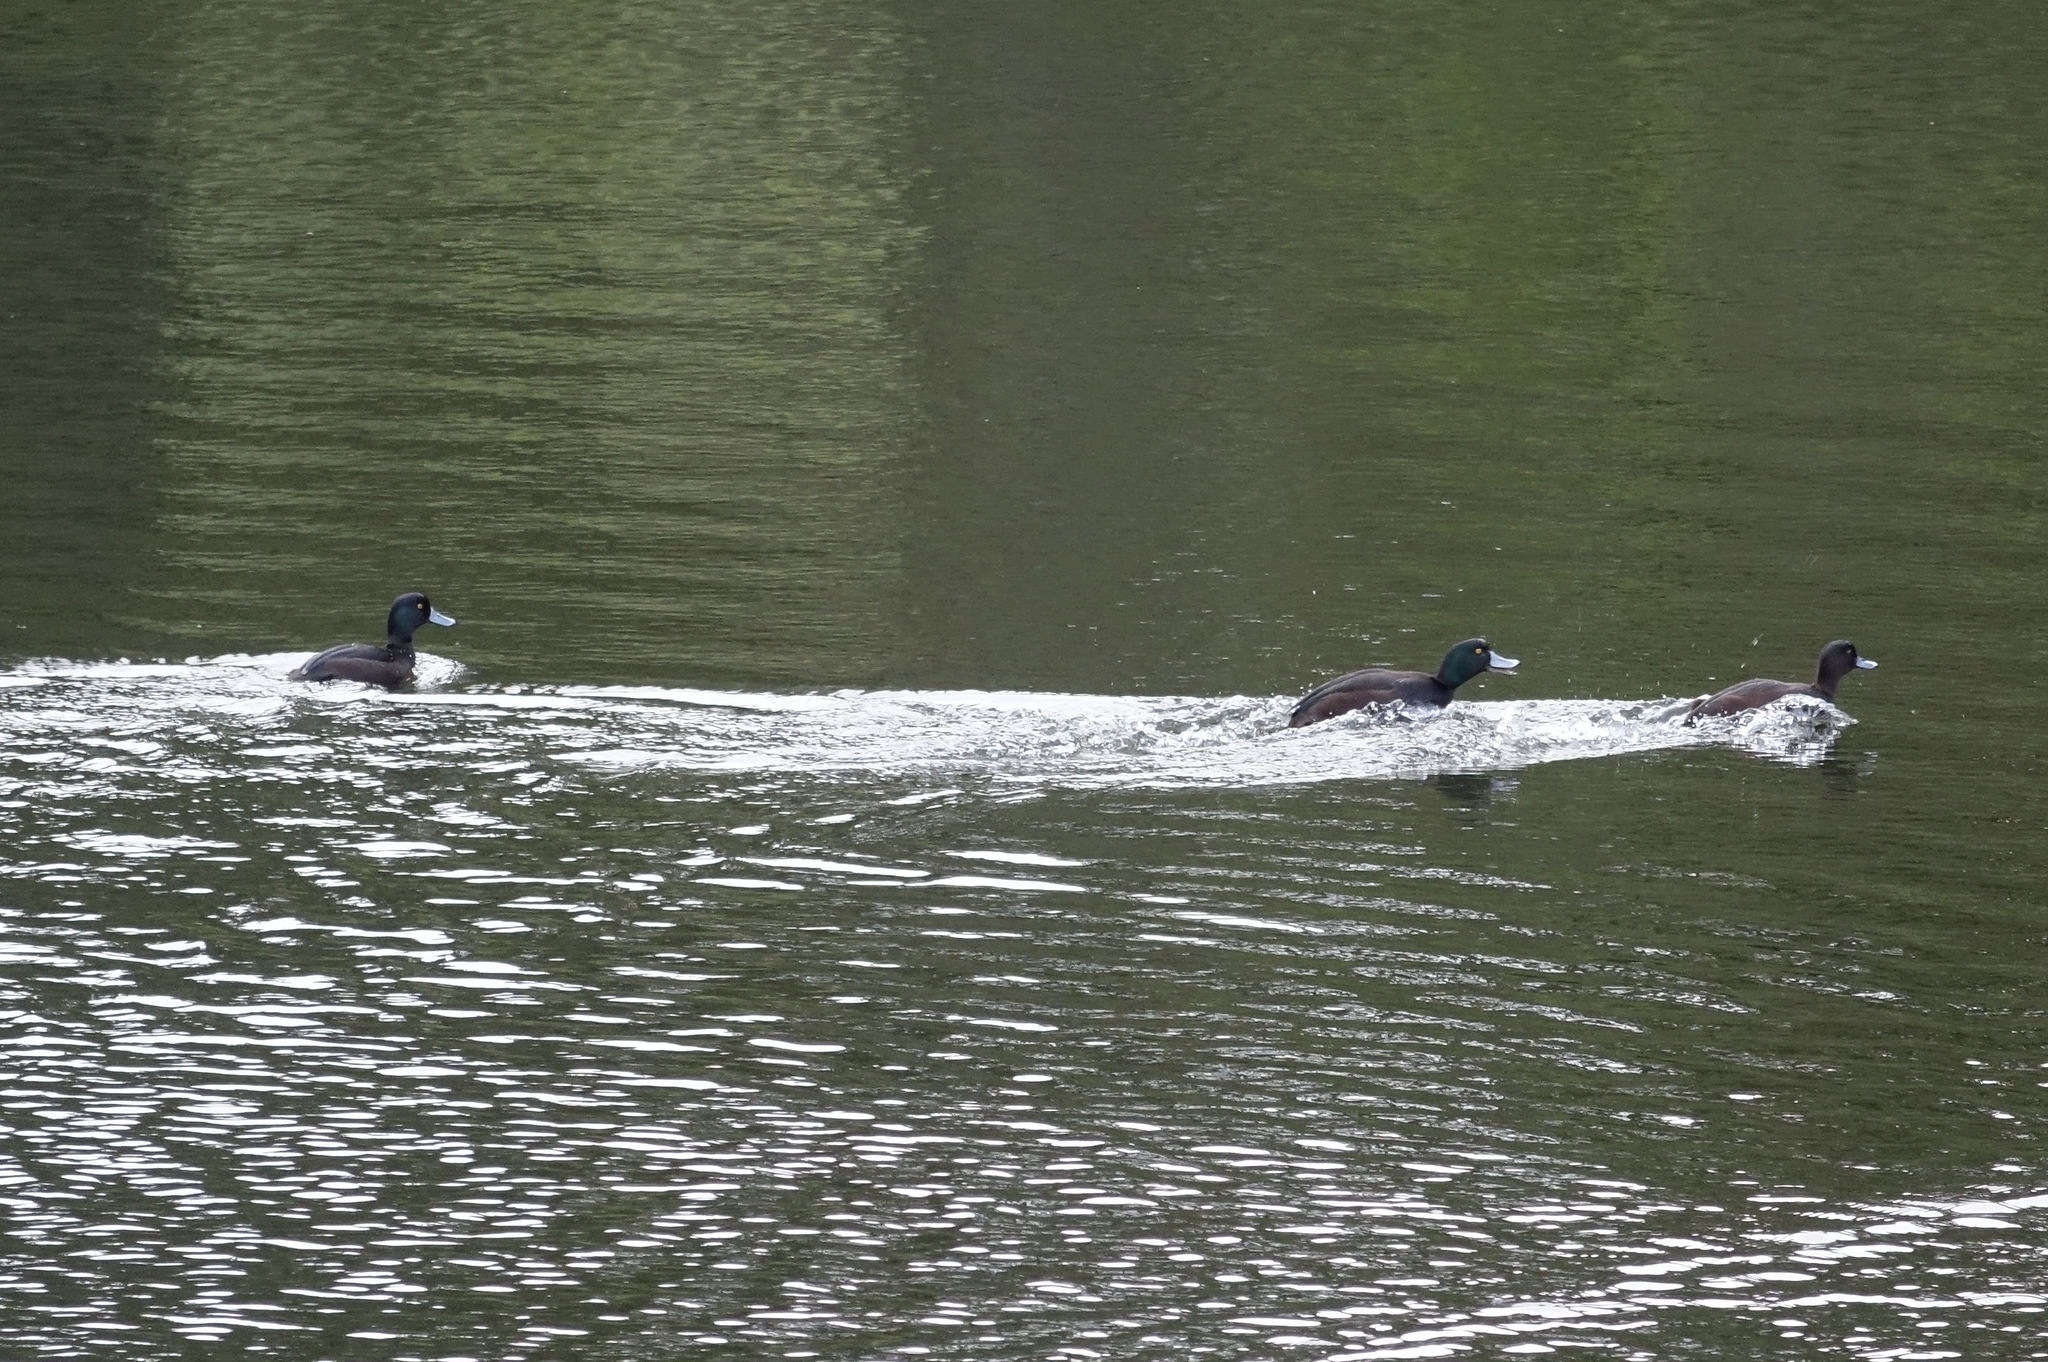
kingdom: Animalia
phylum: Chordata
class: Aves
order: Anseriformes
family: Anatidae
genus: Aythya
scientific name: Aythya novaeseelandiae
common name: New zealand scaup
